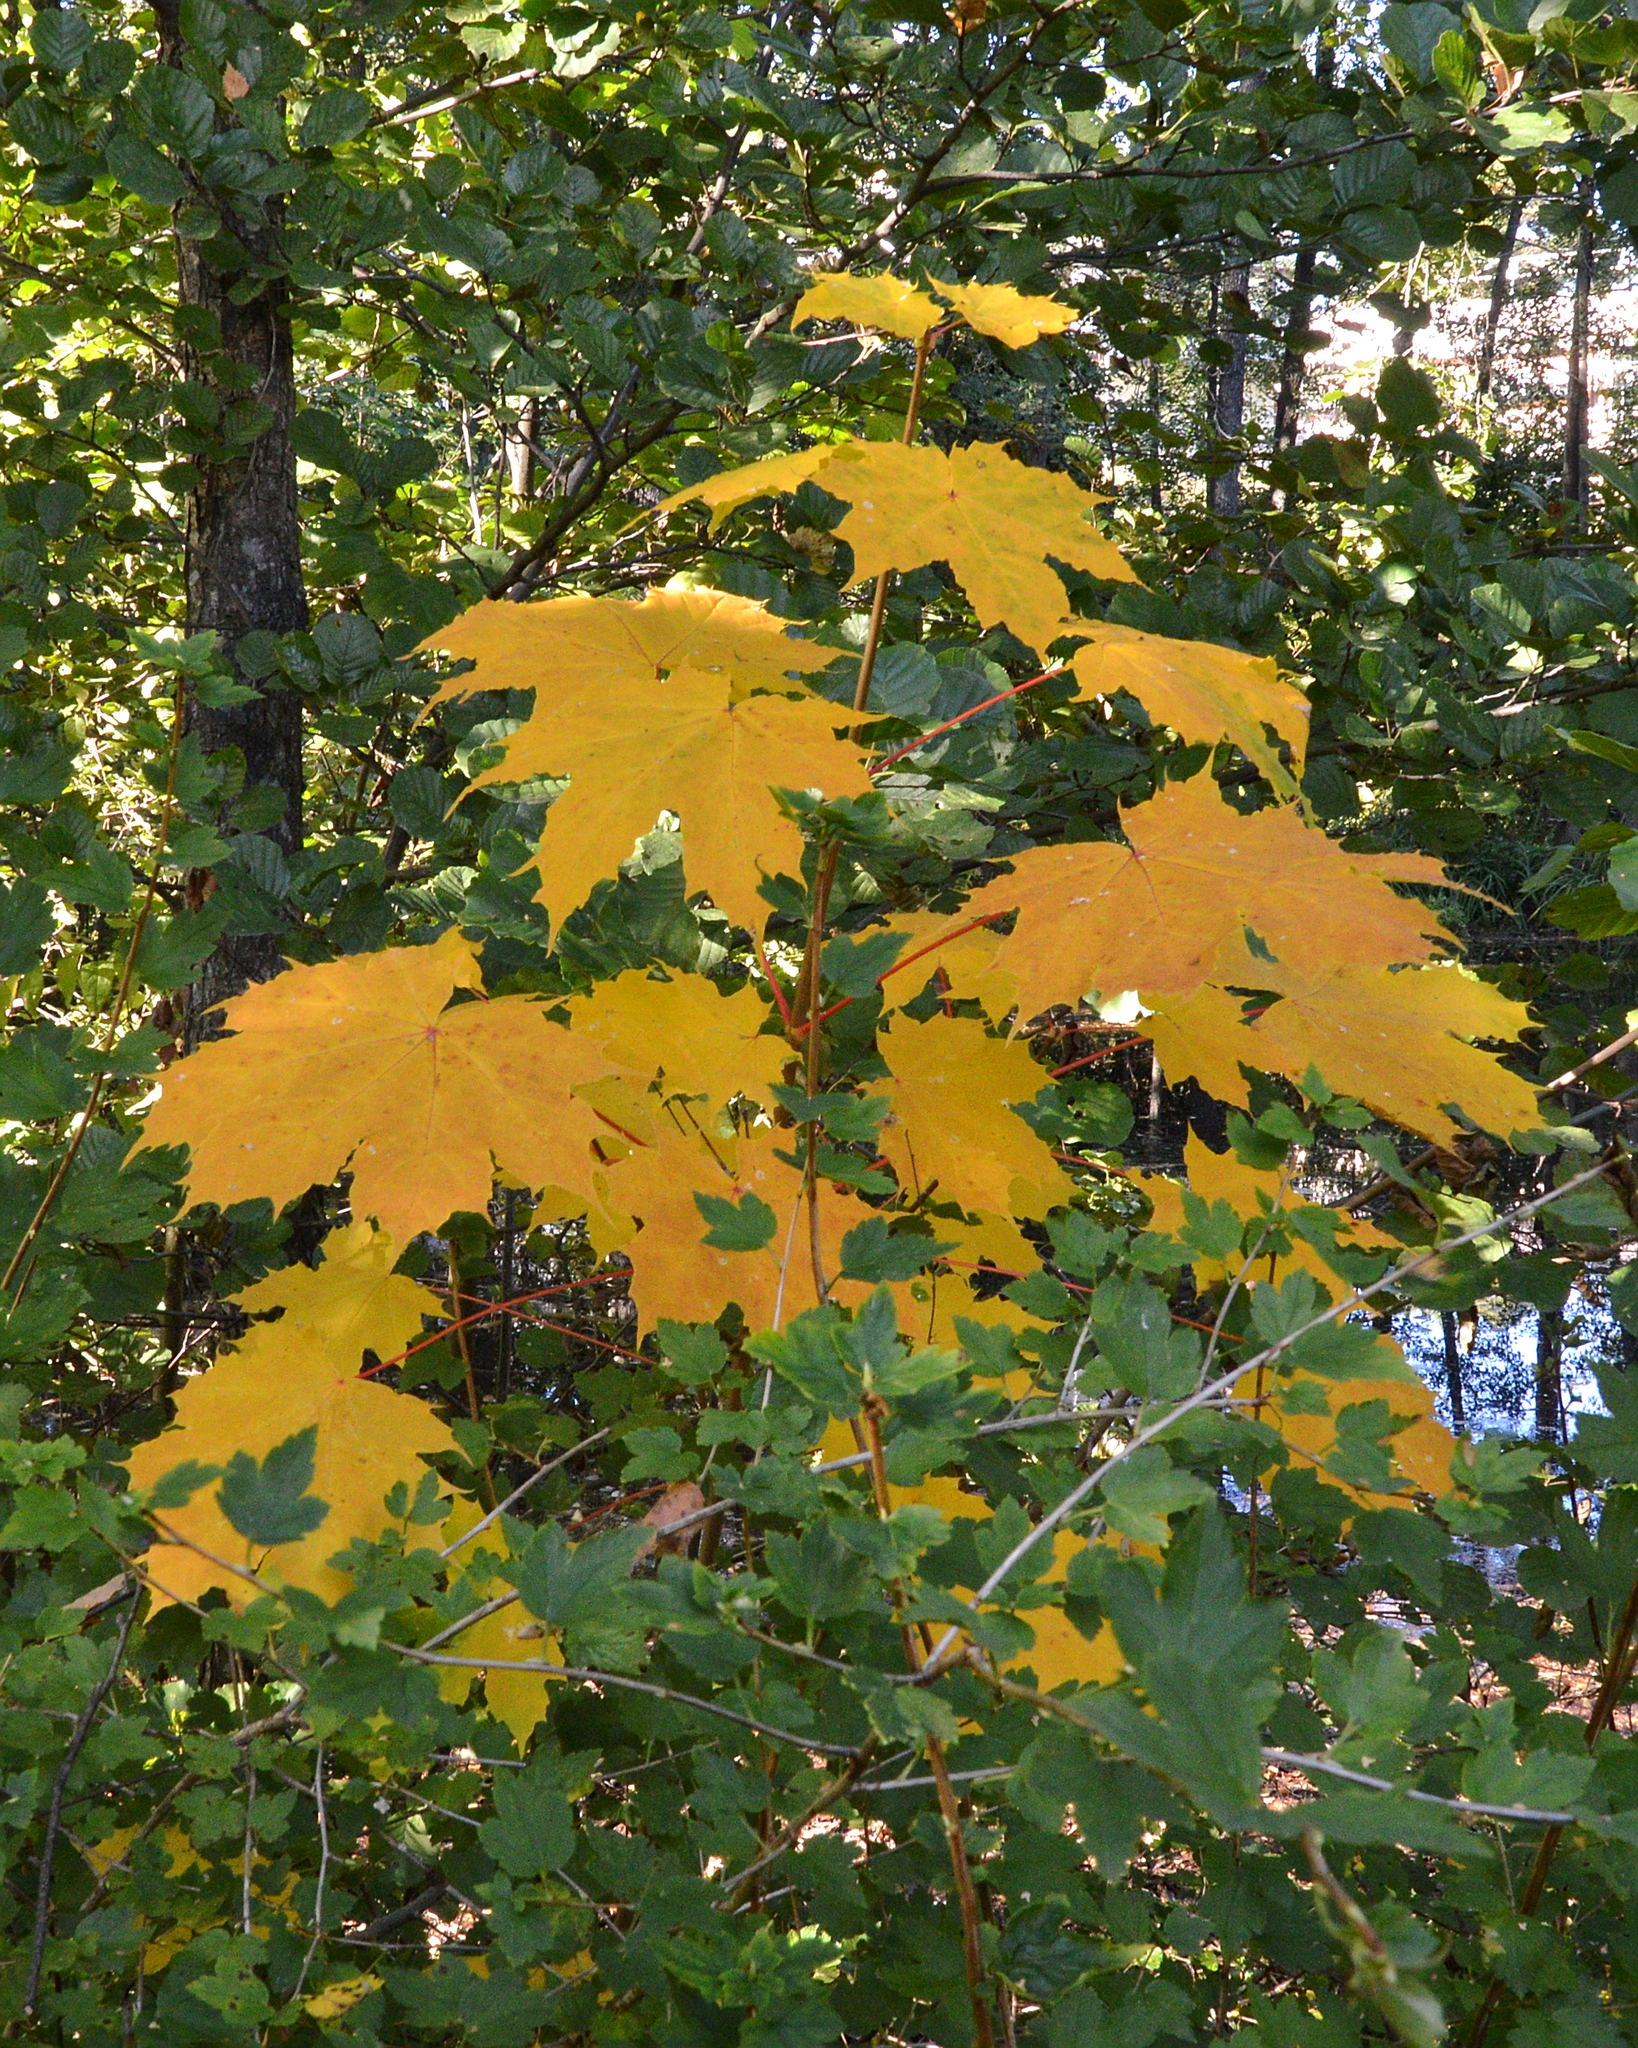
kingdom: Plantae
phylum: Tracheophyta
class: Magnoliopsida
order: Sapindales
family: Sapindaceae
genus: Acer
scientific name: Acer platanoides
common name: Norway maple
